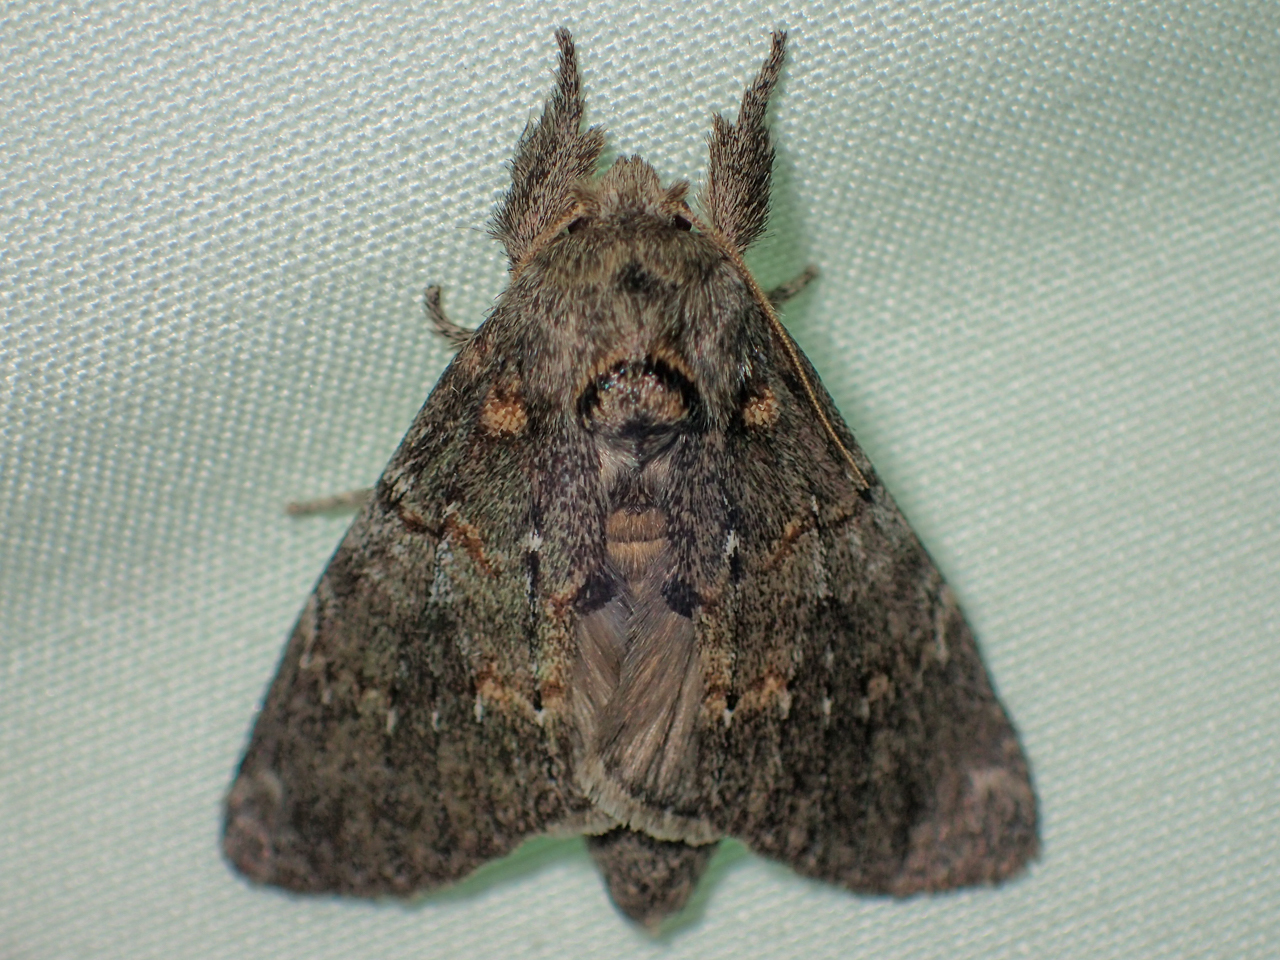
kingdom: Animalia
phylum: Arthropoda
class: Insecta
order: Lepidoptera
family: Notodontidae
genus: Peridea
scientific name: Peridea angulosa
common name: Angulose prominent
